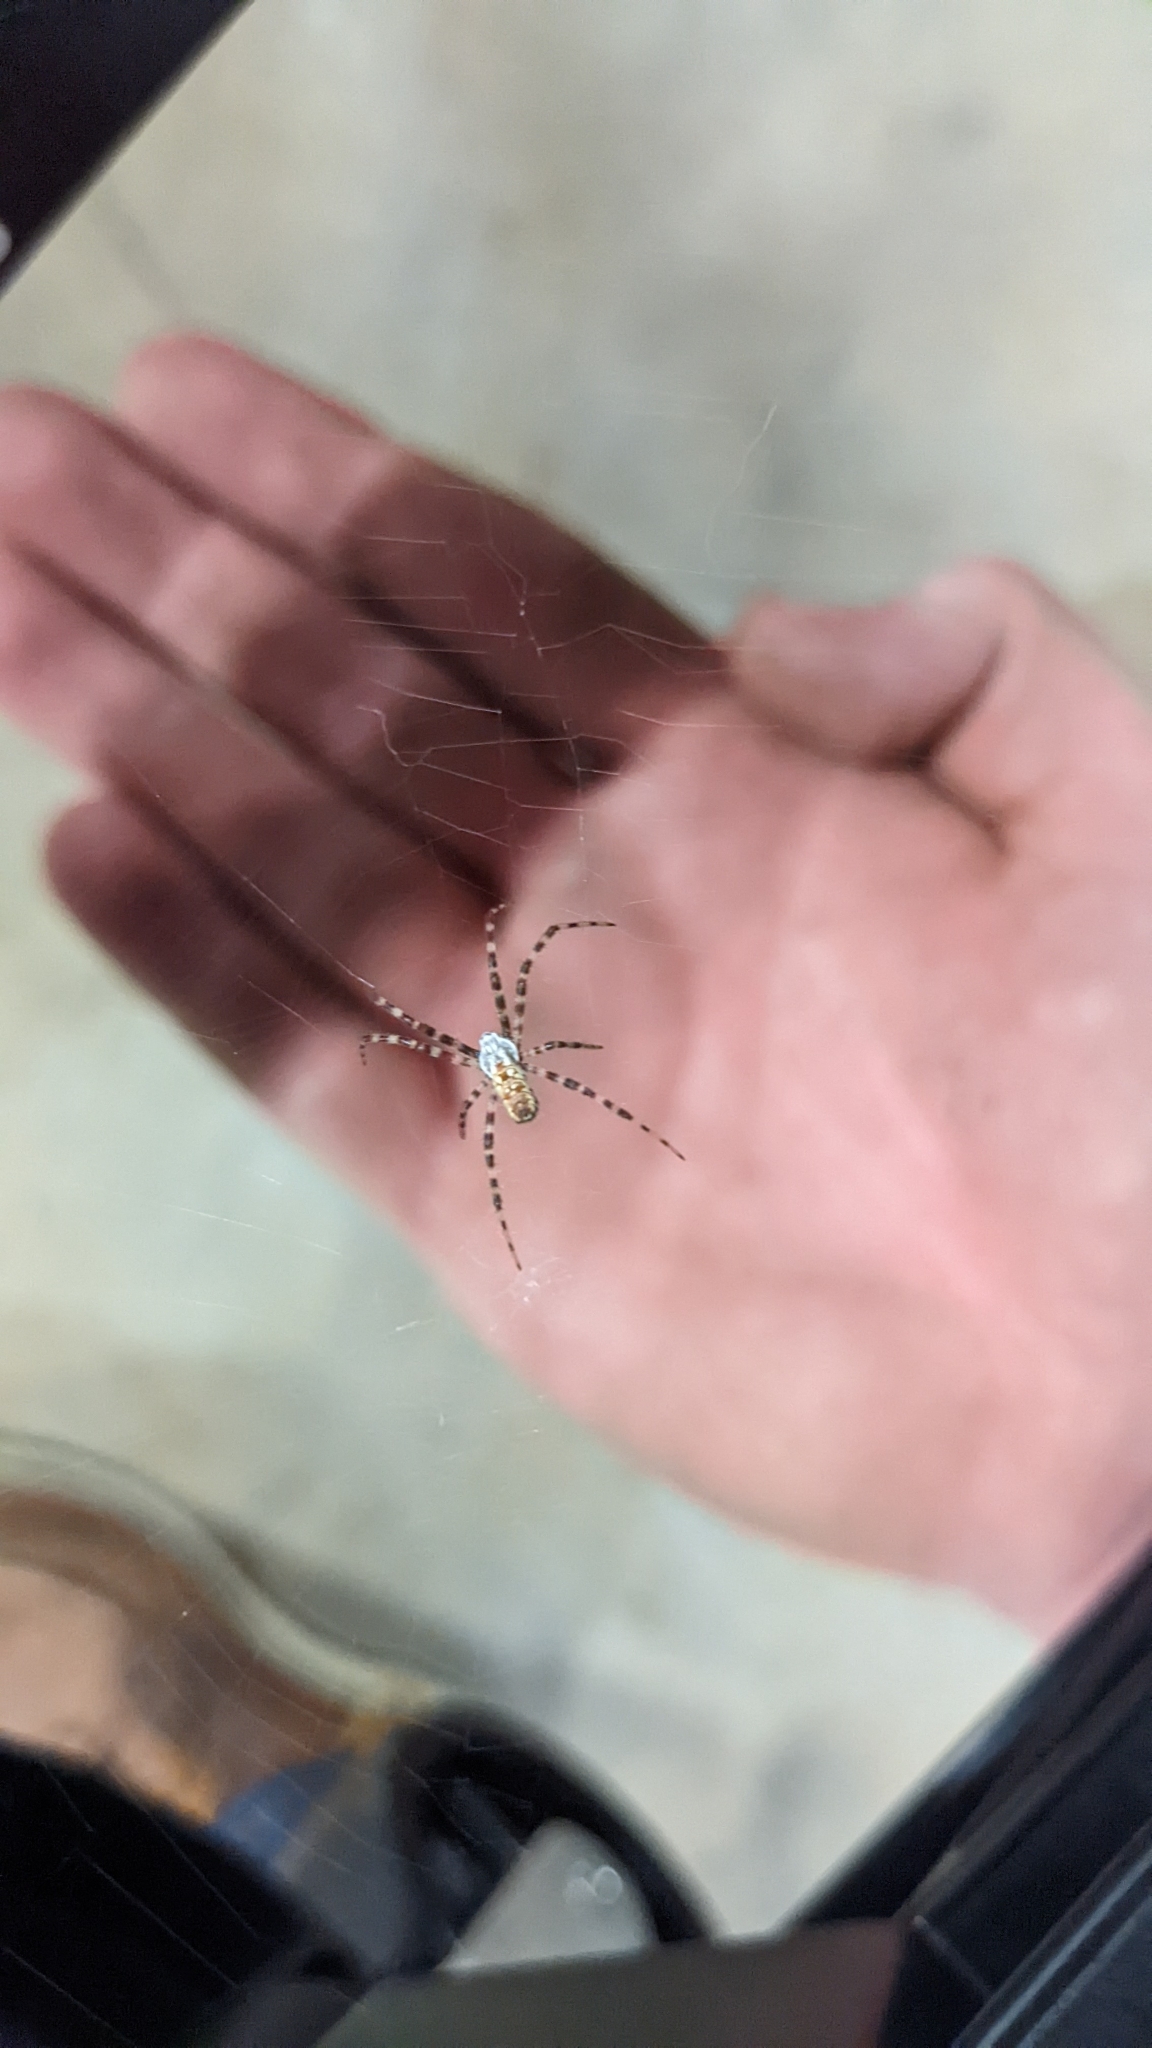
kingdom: Animalia
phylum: Arthropoda
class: Arachnida
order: Araneae
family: Araneidae
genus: Argiope
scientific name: Argiope aurantia
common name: Orb weavers
